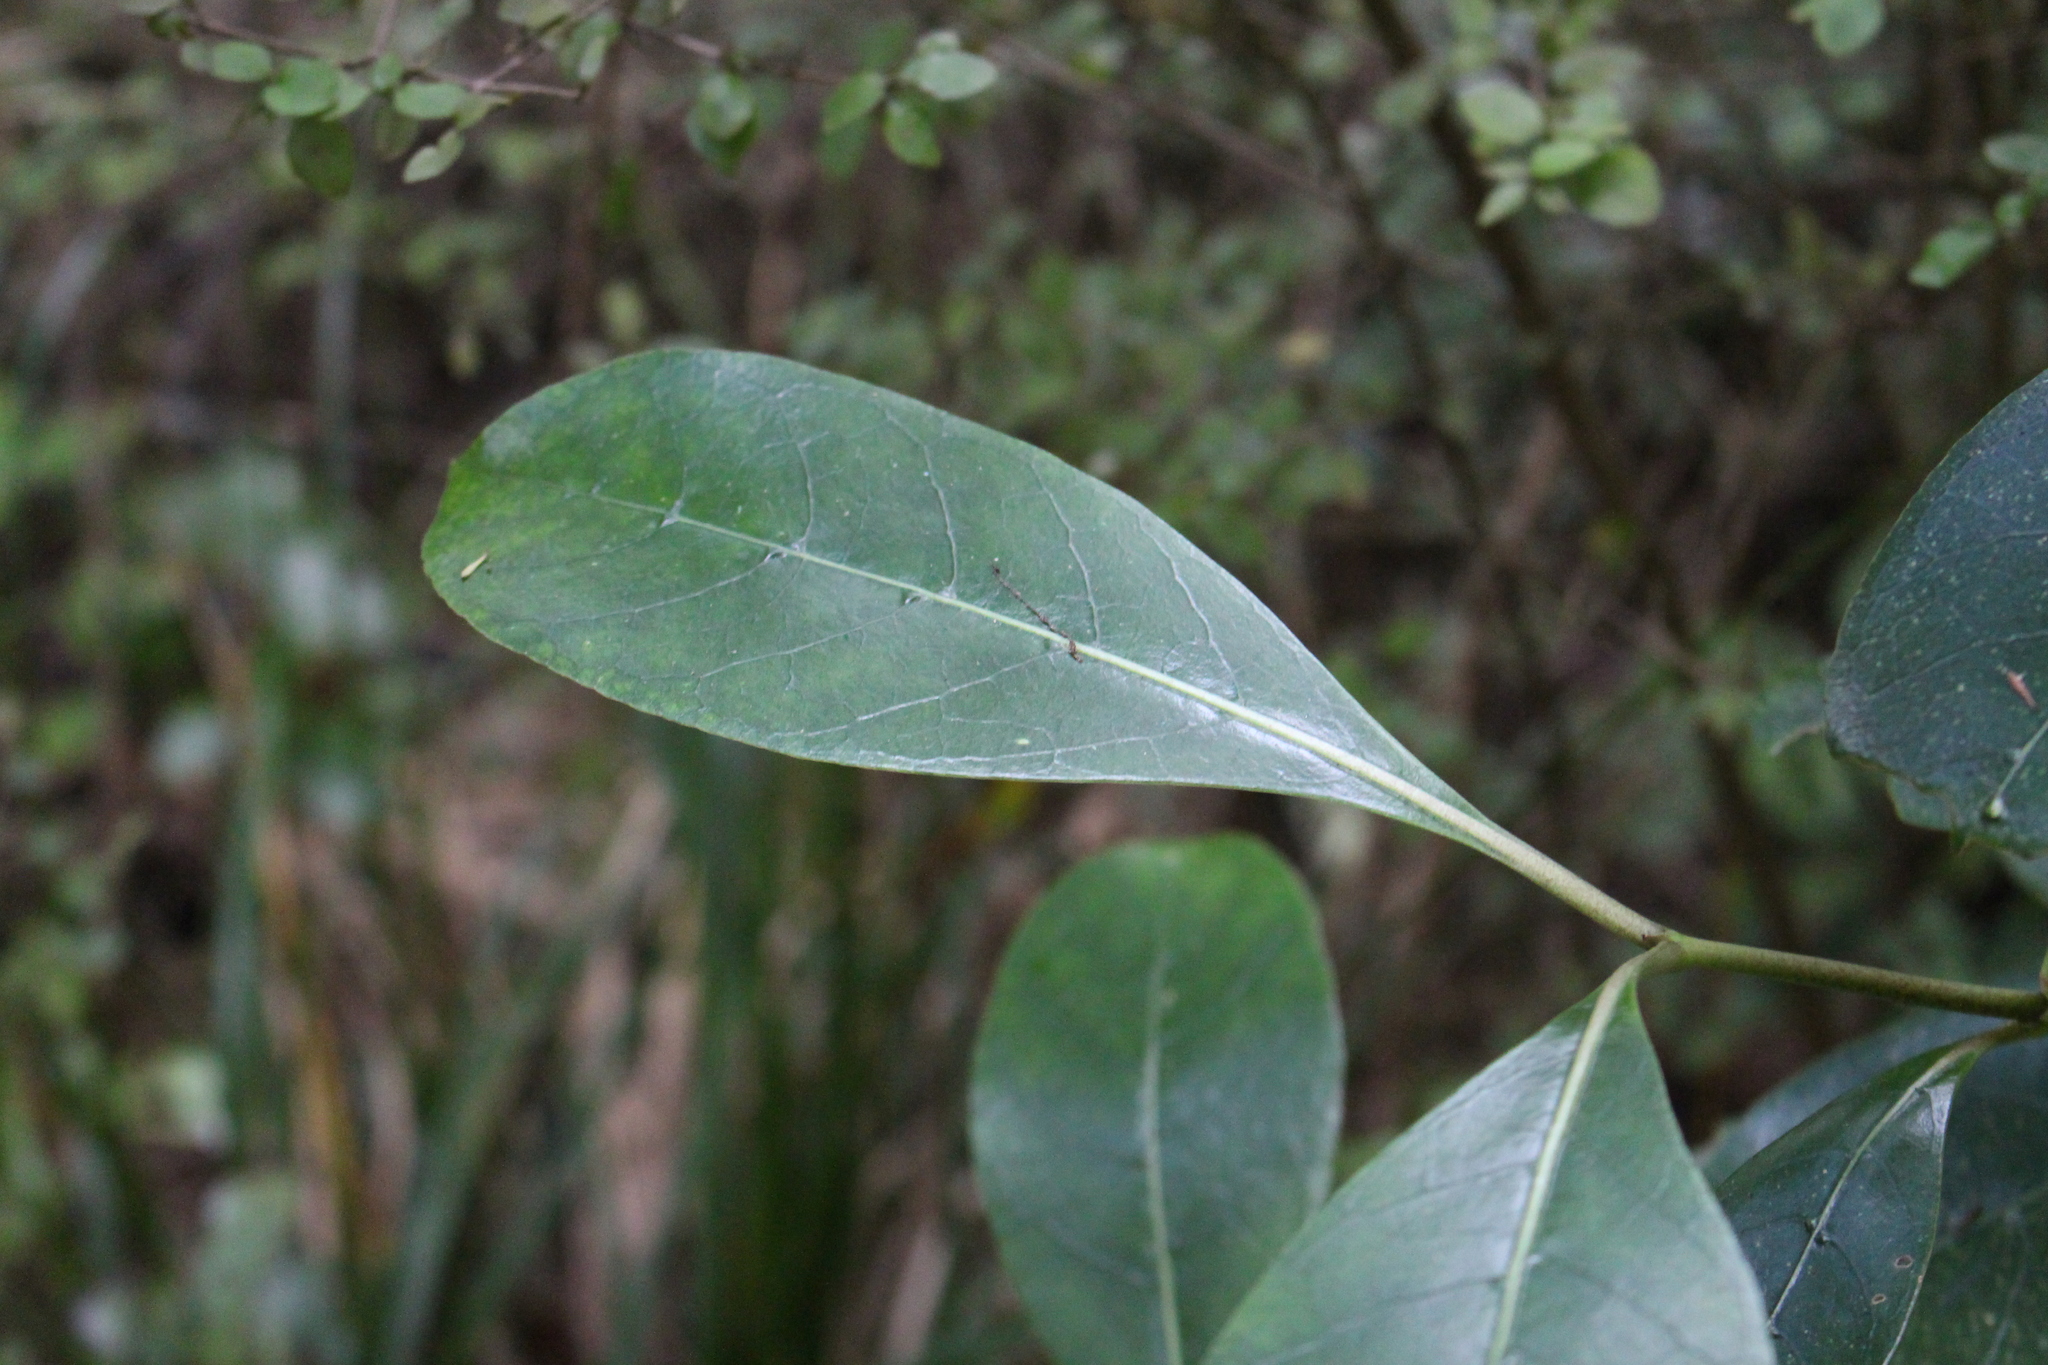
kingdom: Plantae
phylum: Tracheophyta
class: Magnoliopsida
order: Gentianales
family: Rubiaceae
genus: Coprosma
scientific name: Coprosma lucida
